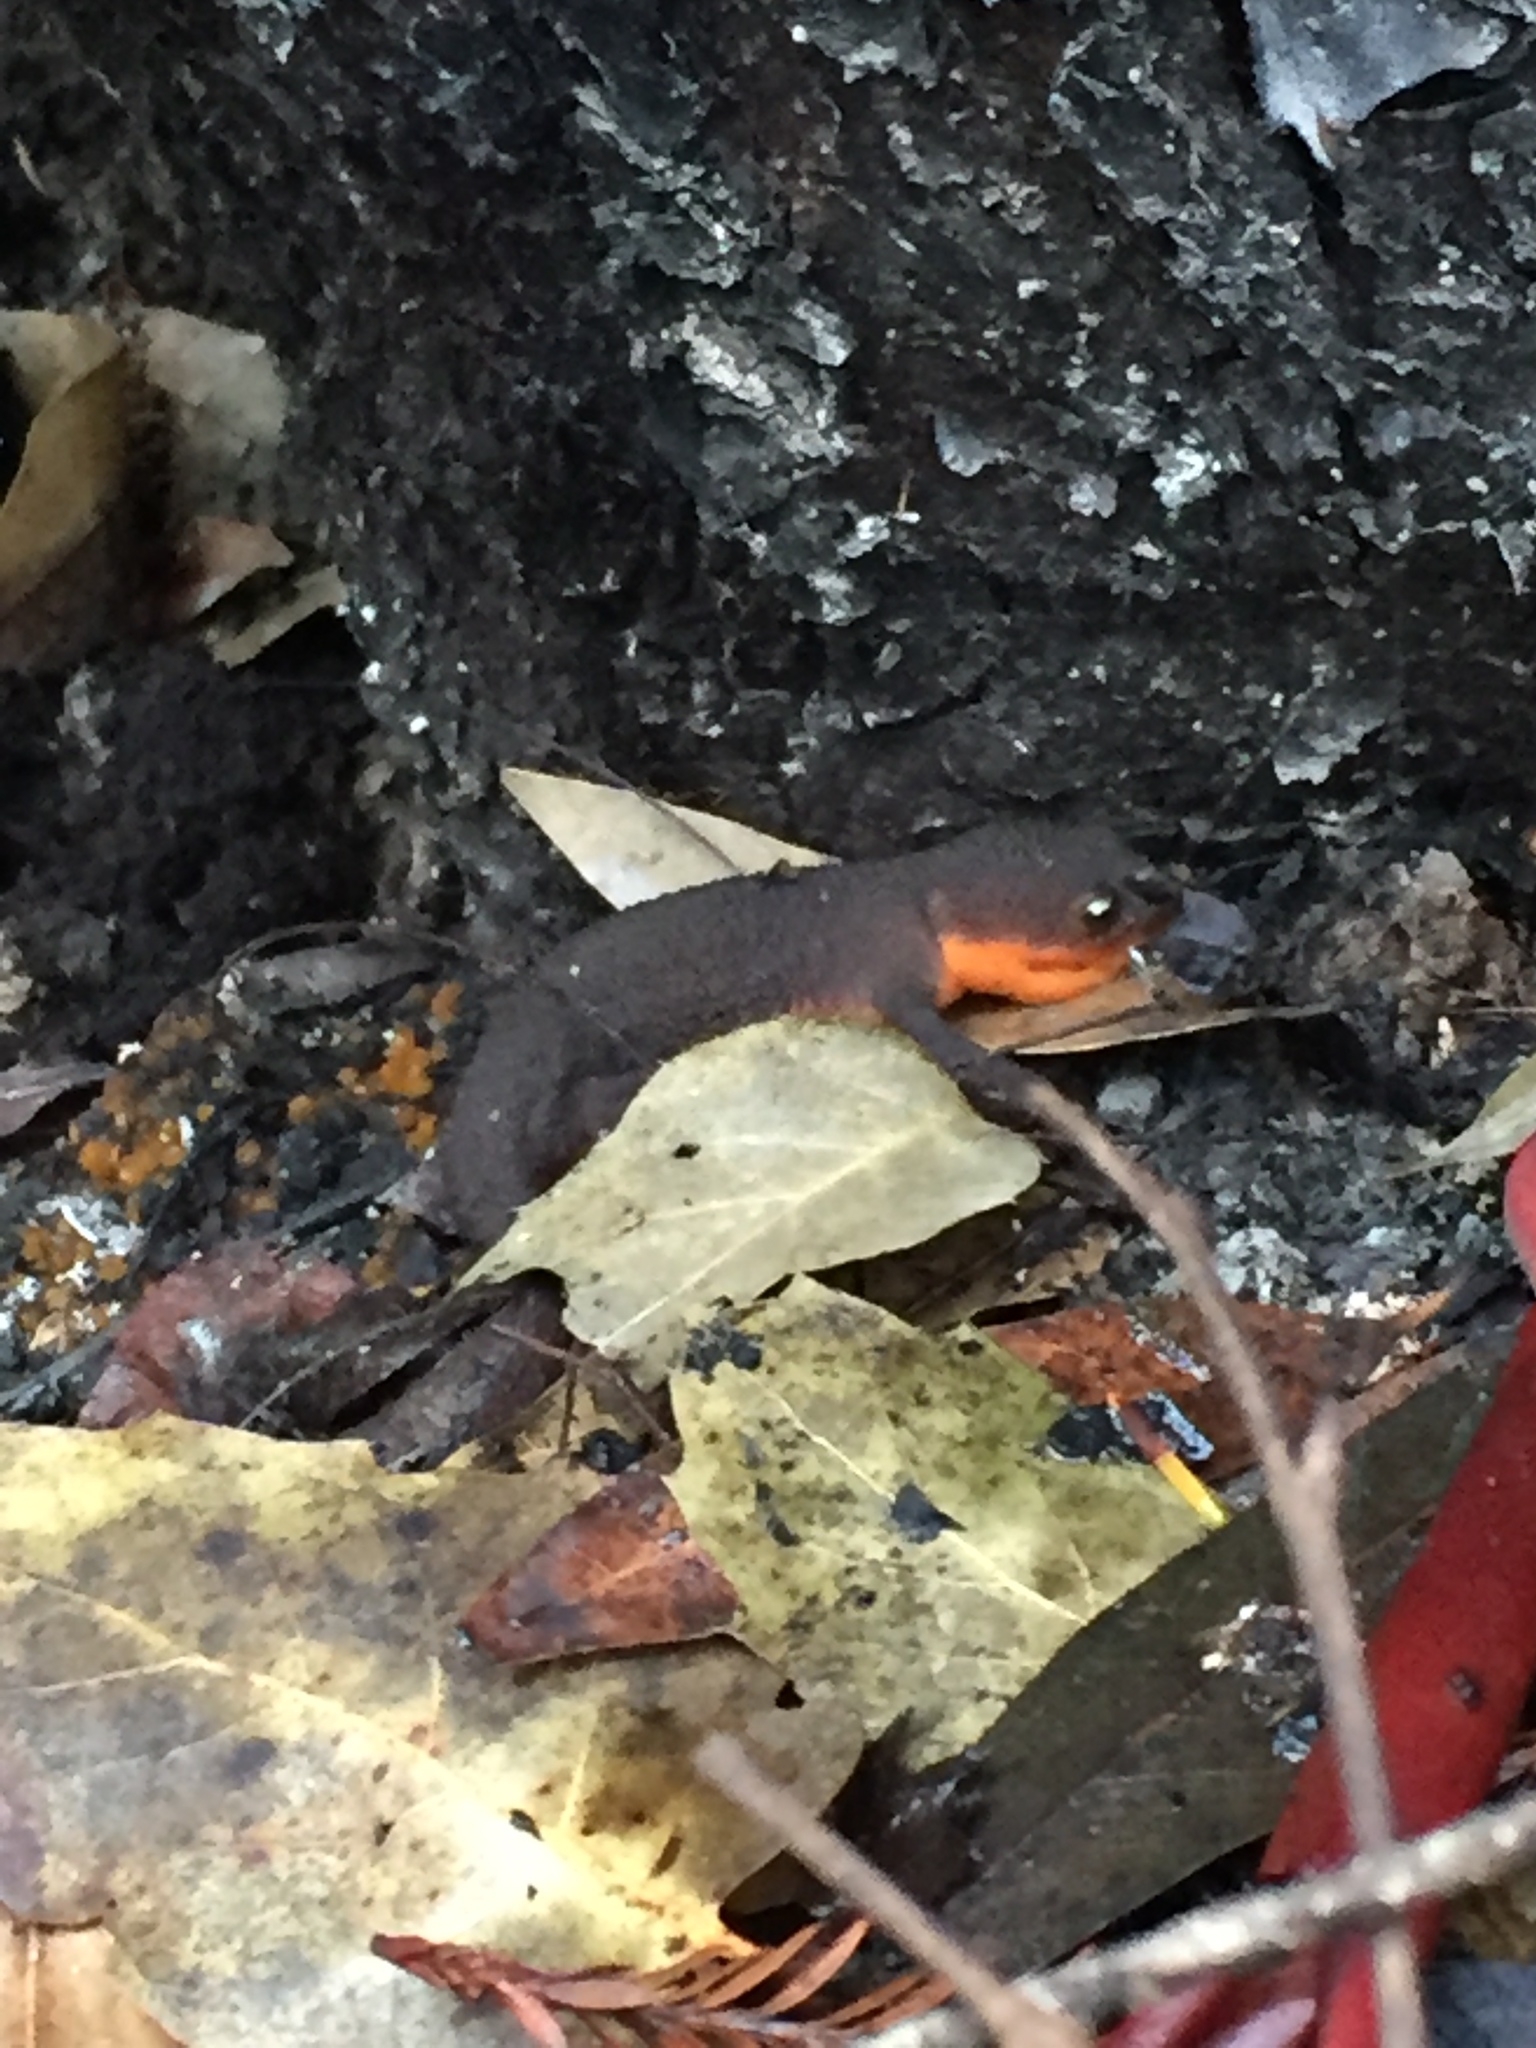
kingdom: Animalia
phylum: Chordata
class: Amphibia
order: Caudata
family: Salamandridae
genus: Taricha
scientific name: Taricha granulosa
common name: Roughskin newt
